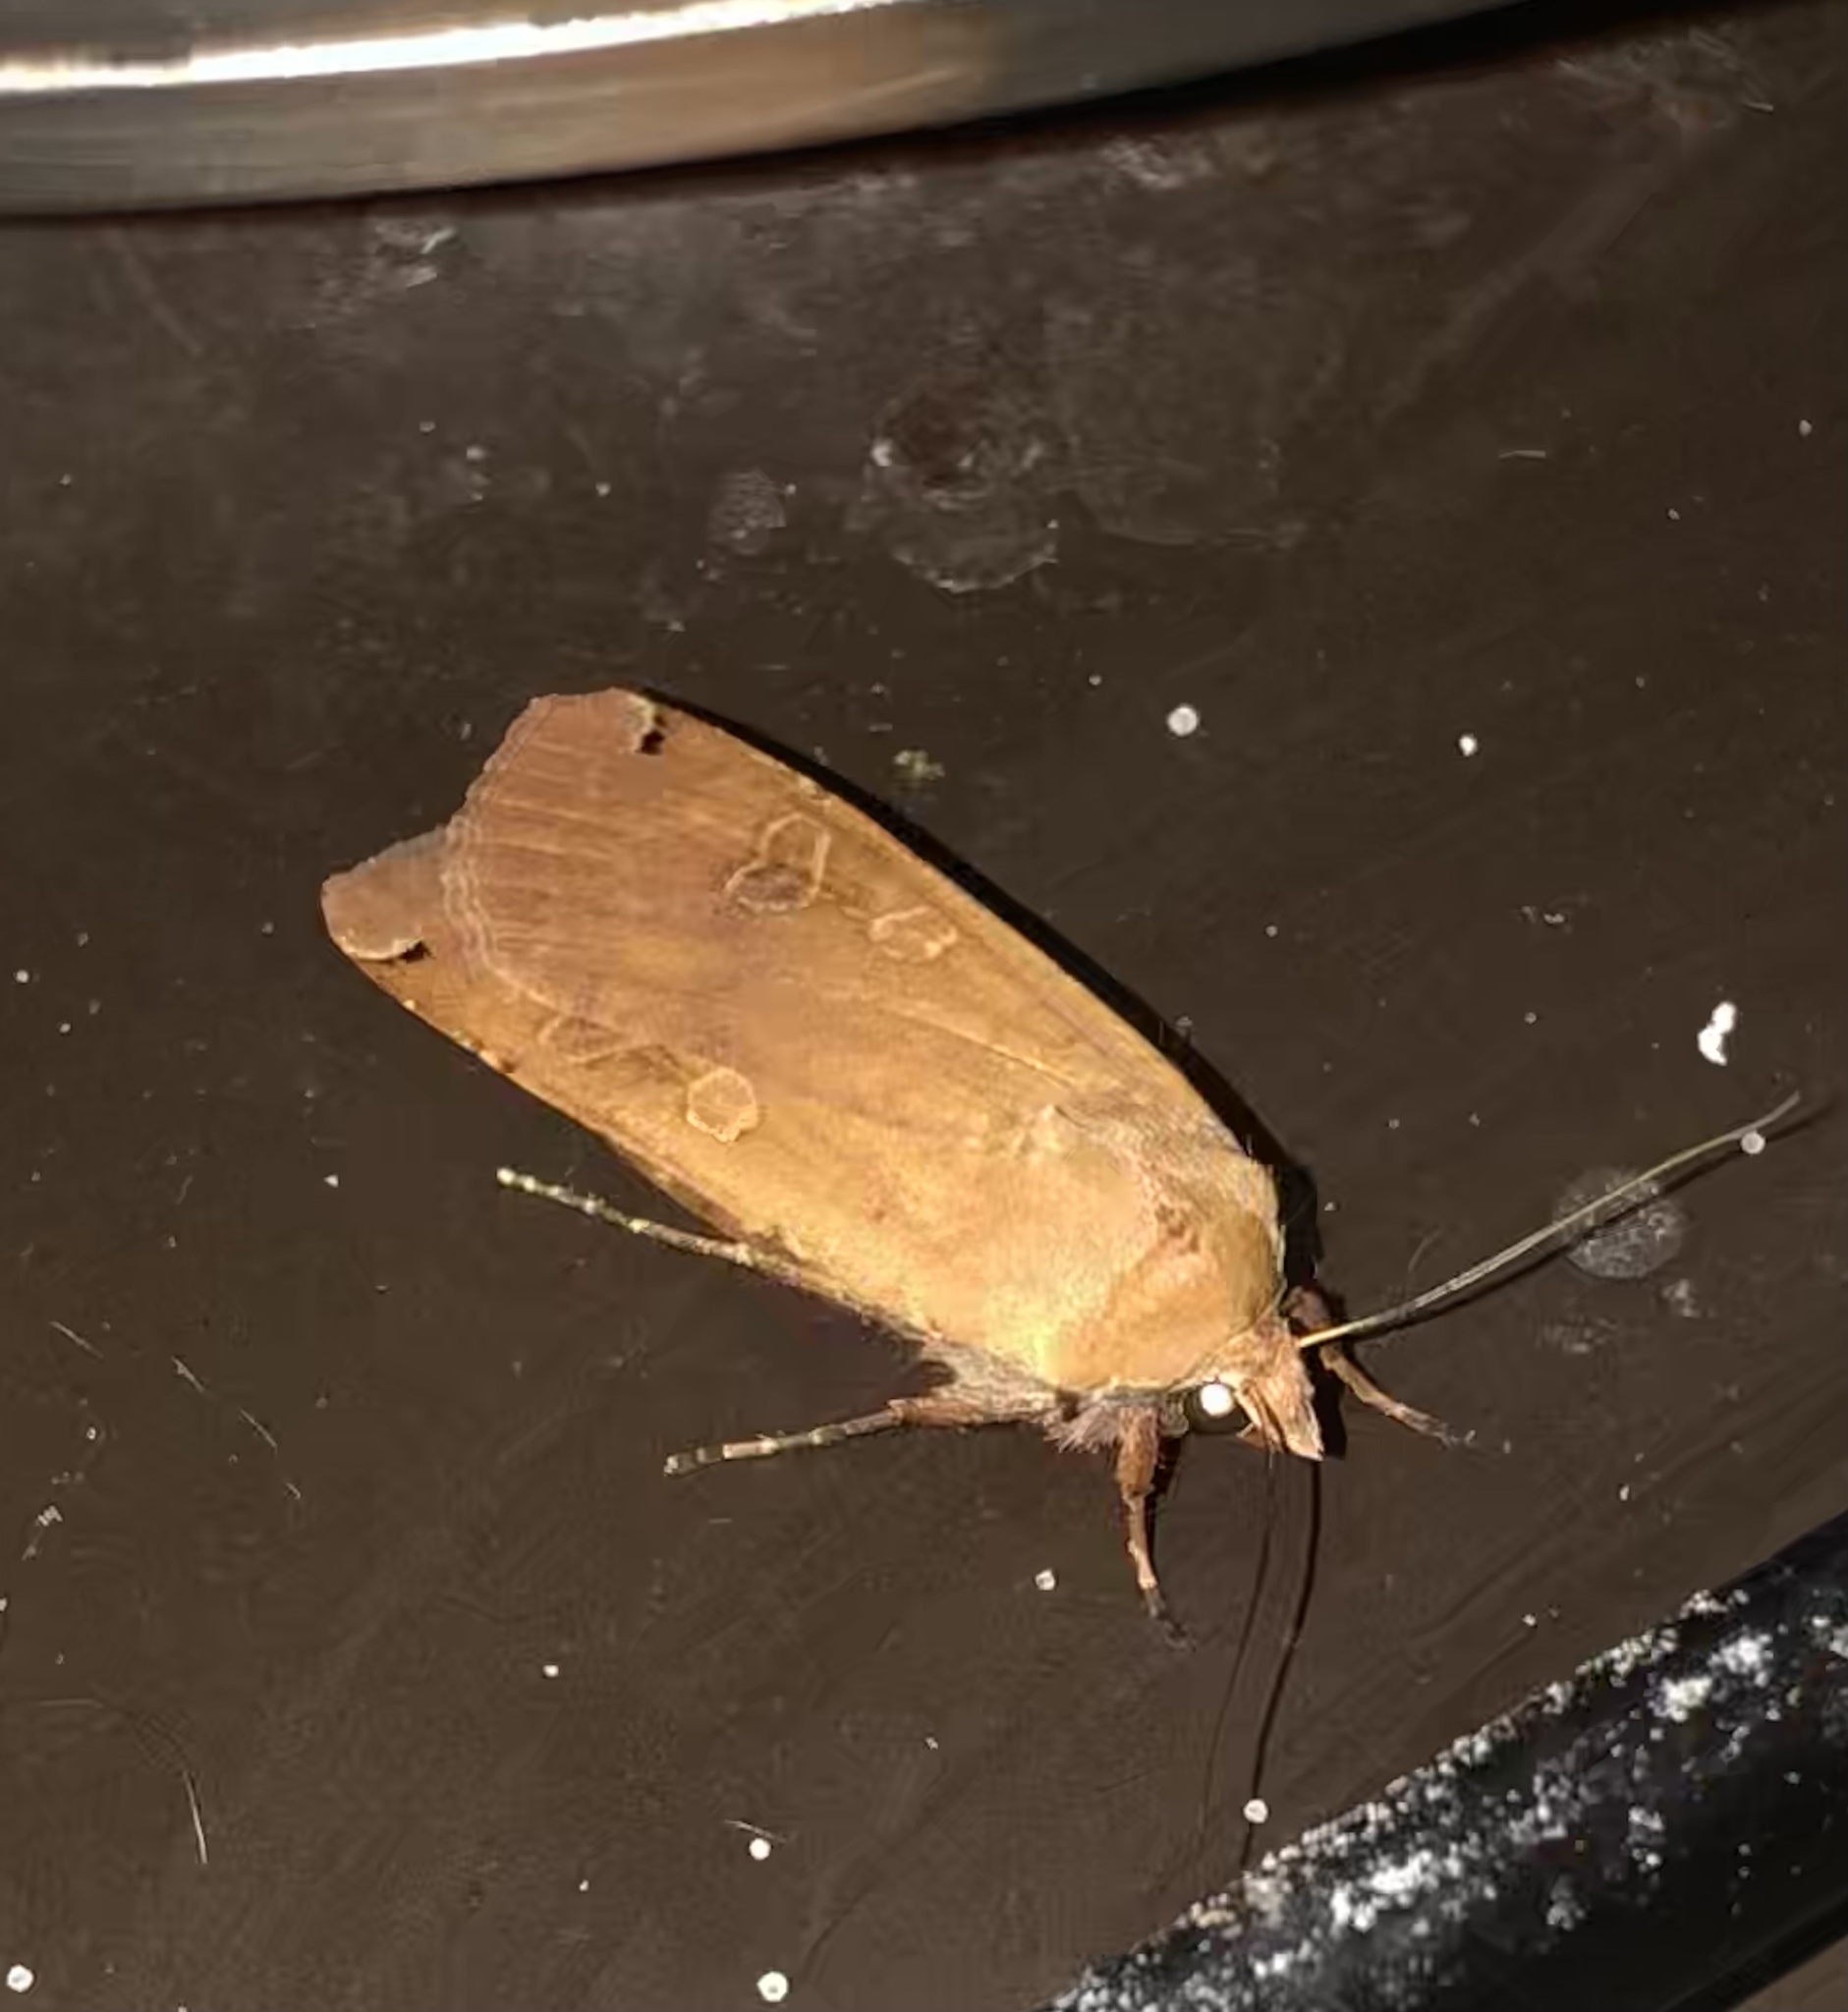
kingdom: Animalia
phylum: Arthropoda
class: Insecta
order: Lepidoptera
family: Noctuidae
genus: Noctua
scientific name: Noctua pronuba
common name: Large yellow underwing
